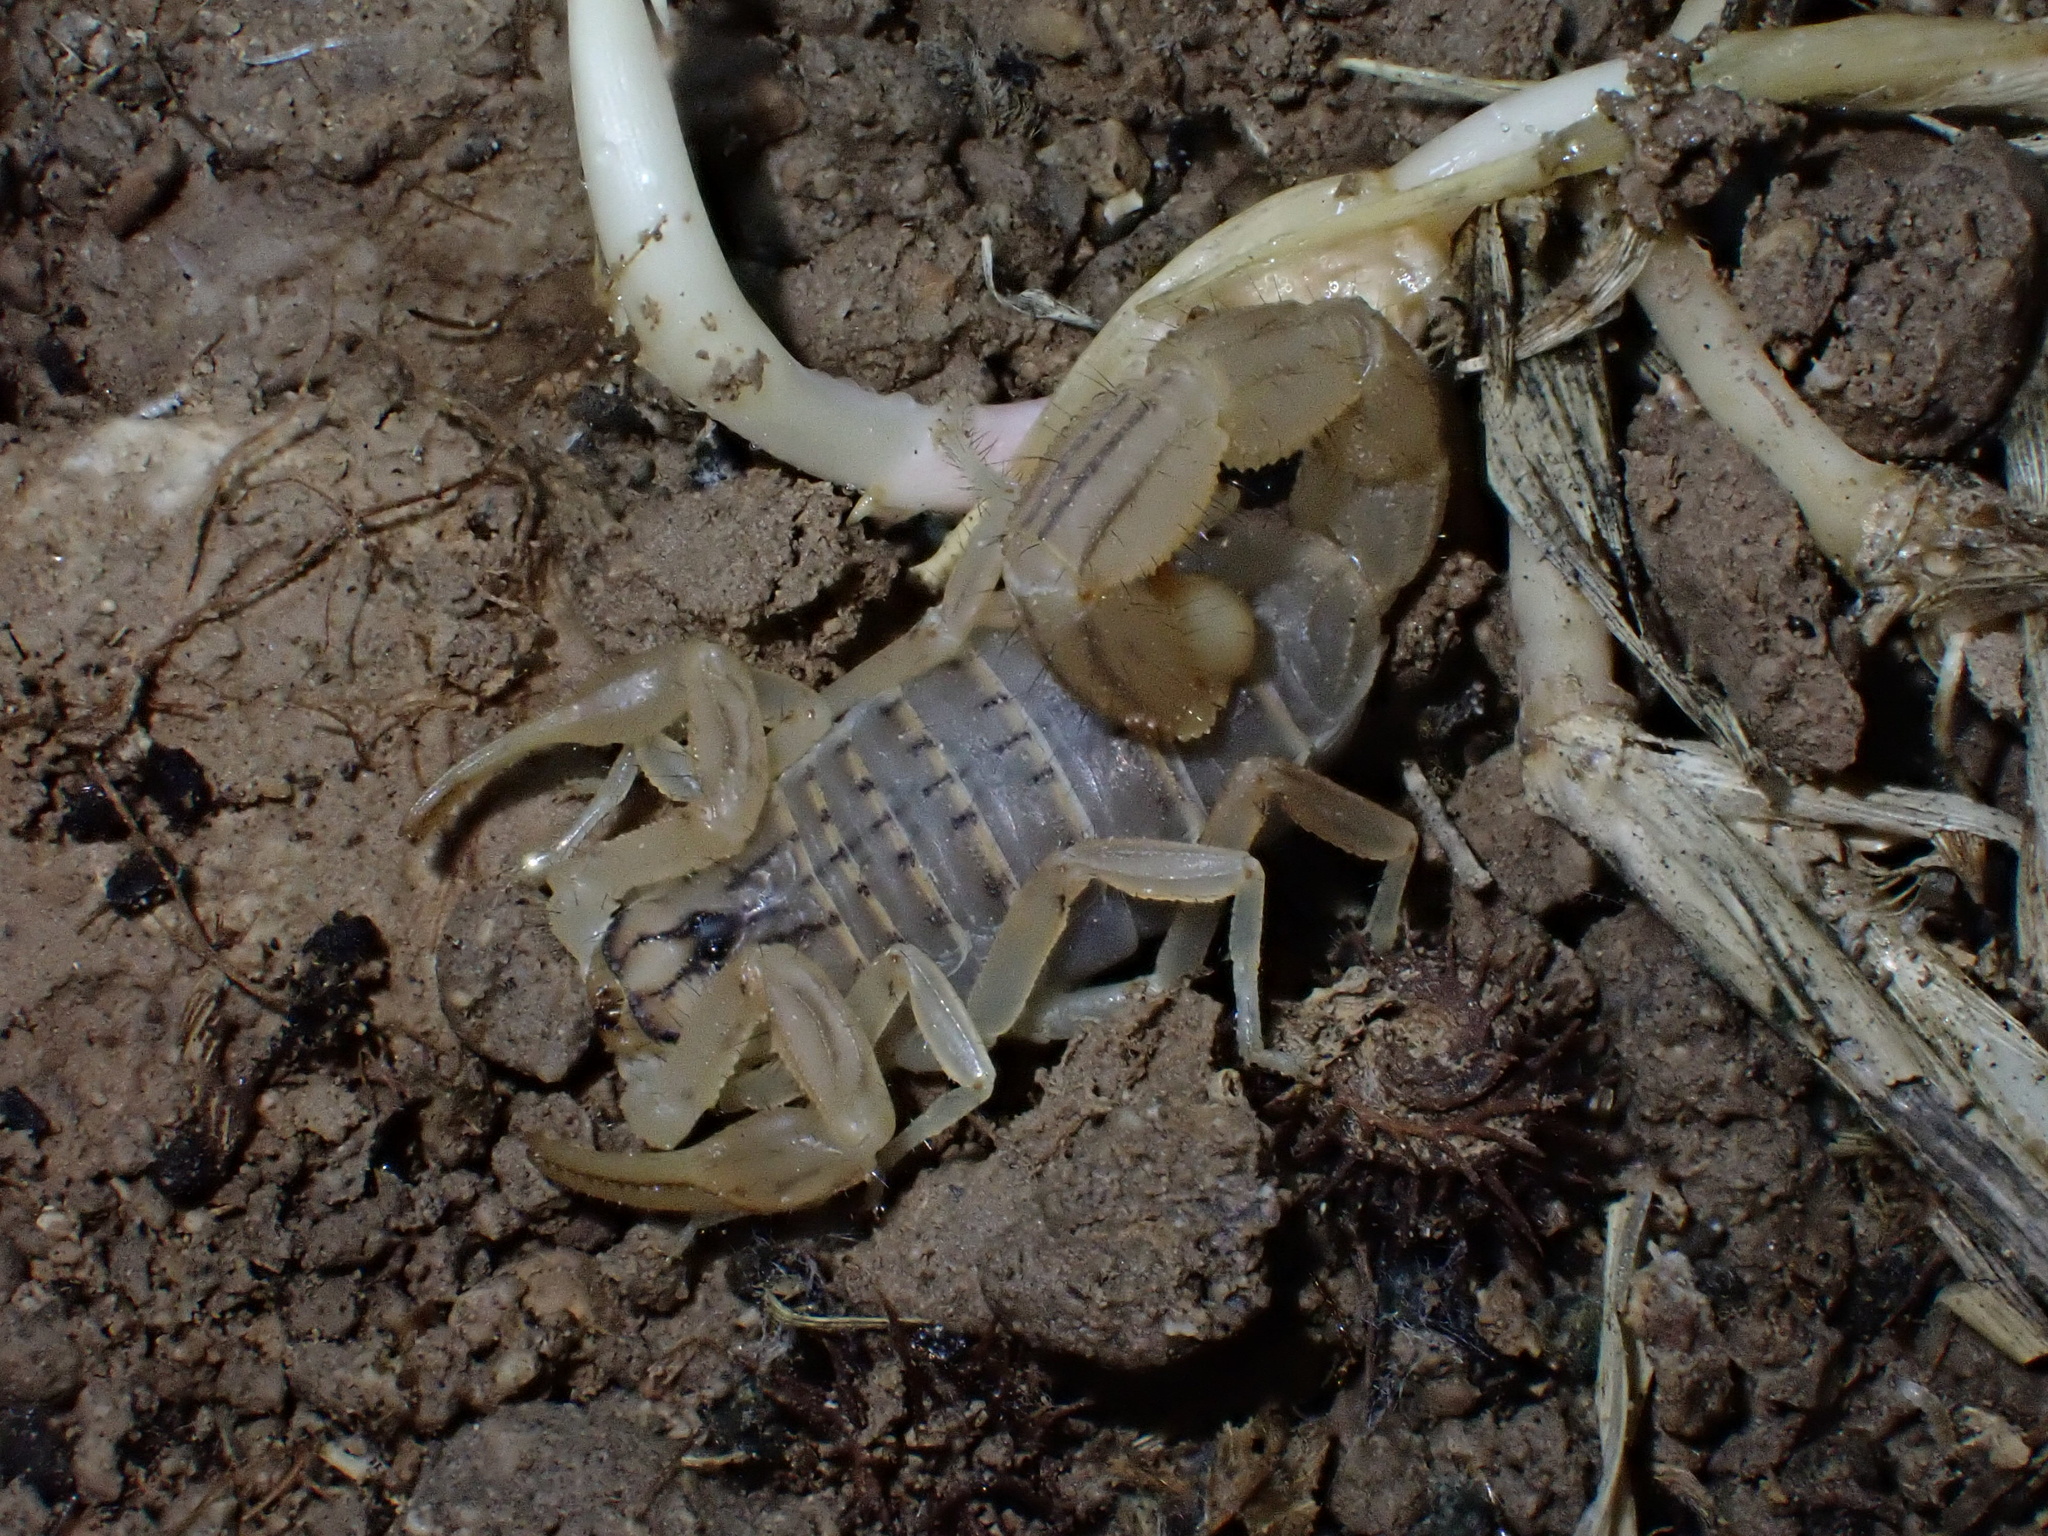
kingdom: Animalia
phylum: Arthropoda
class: Arachnida
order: Scorpiones
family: Buthidae
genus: Mesobuthus
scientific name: Mesobuthus phillipsi
